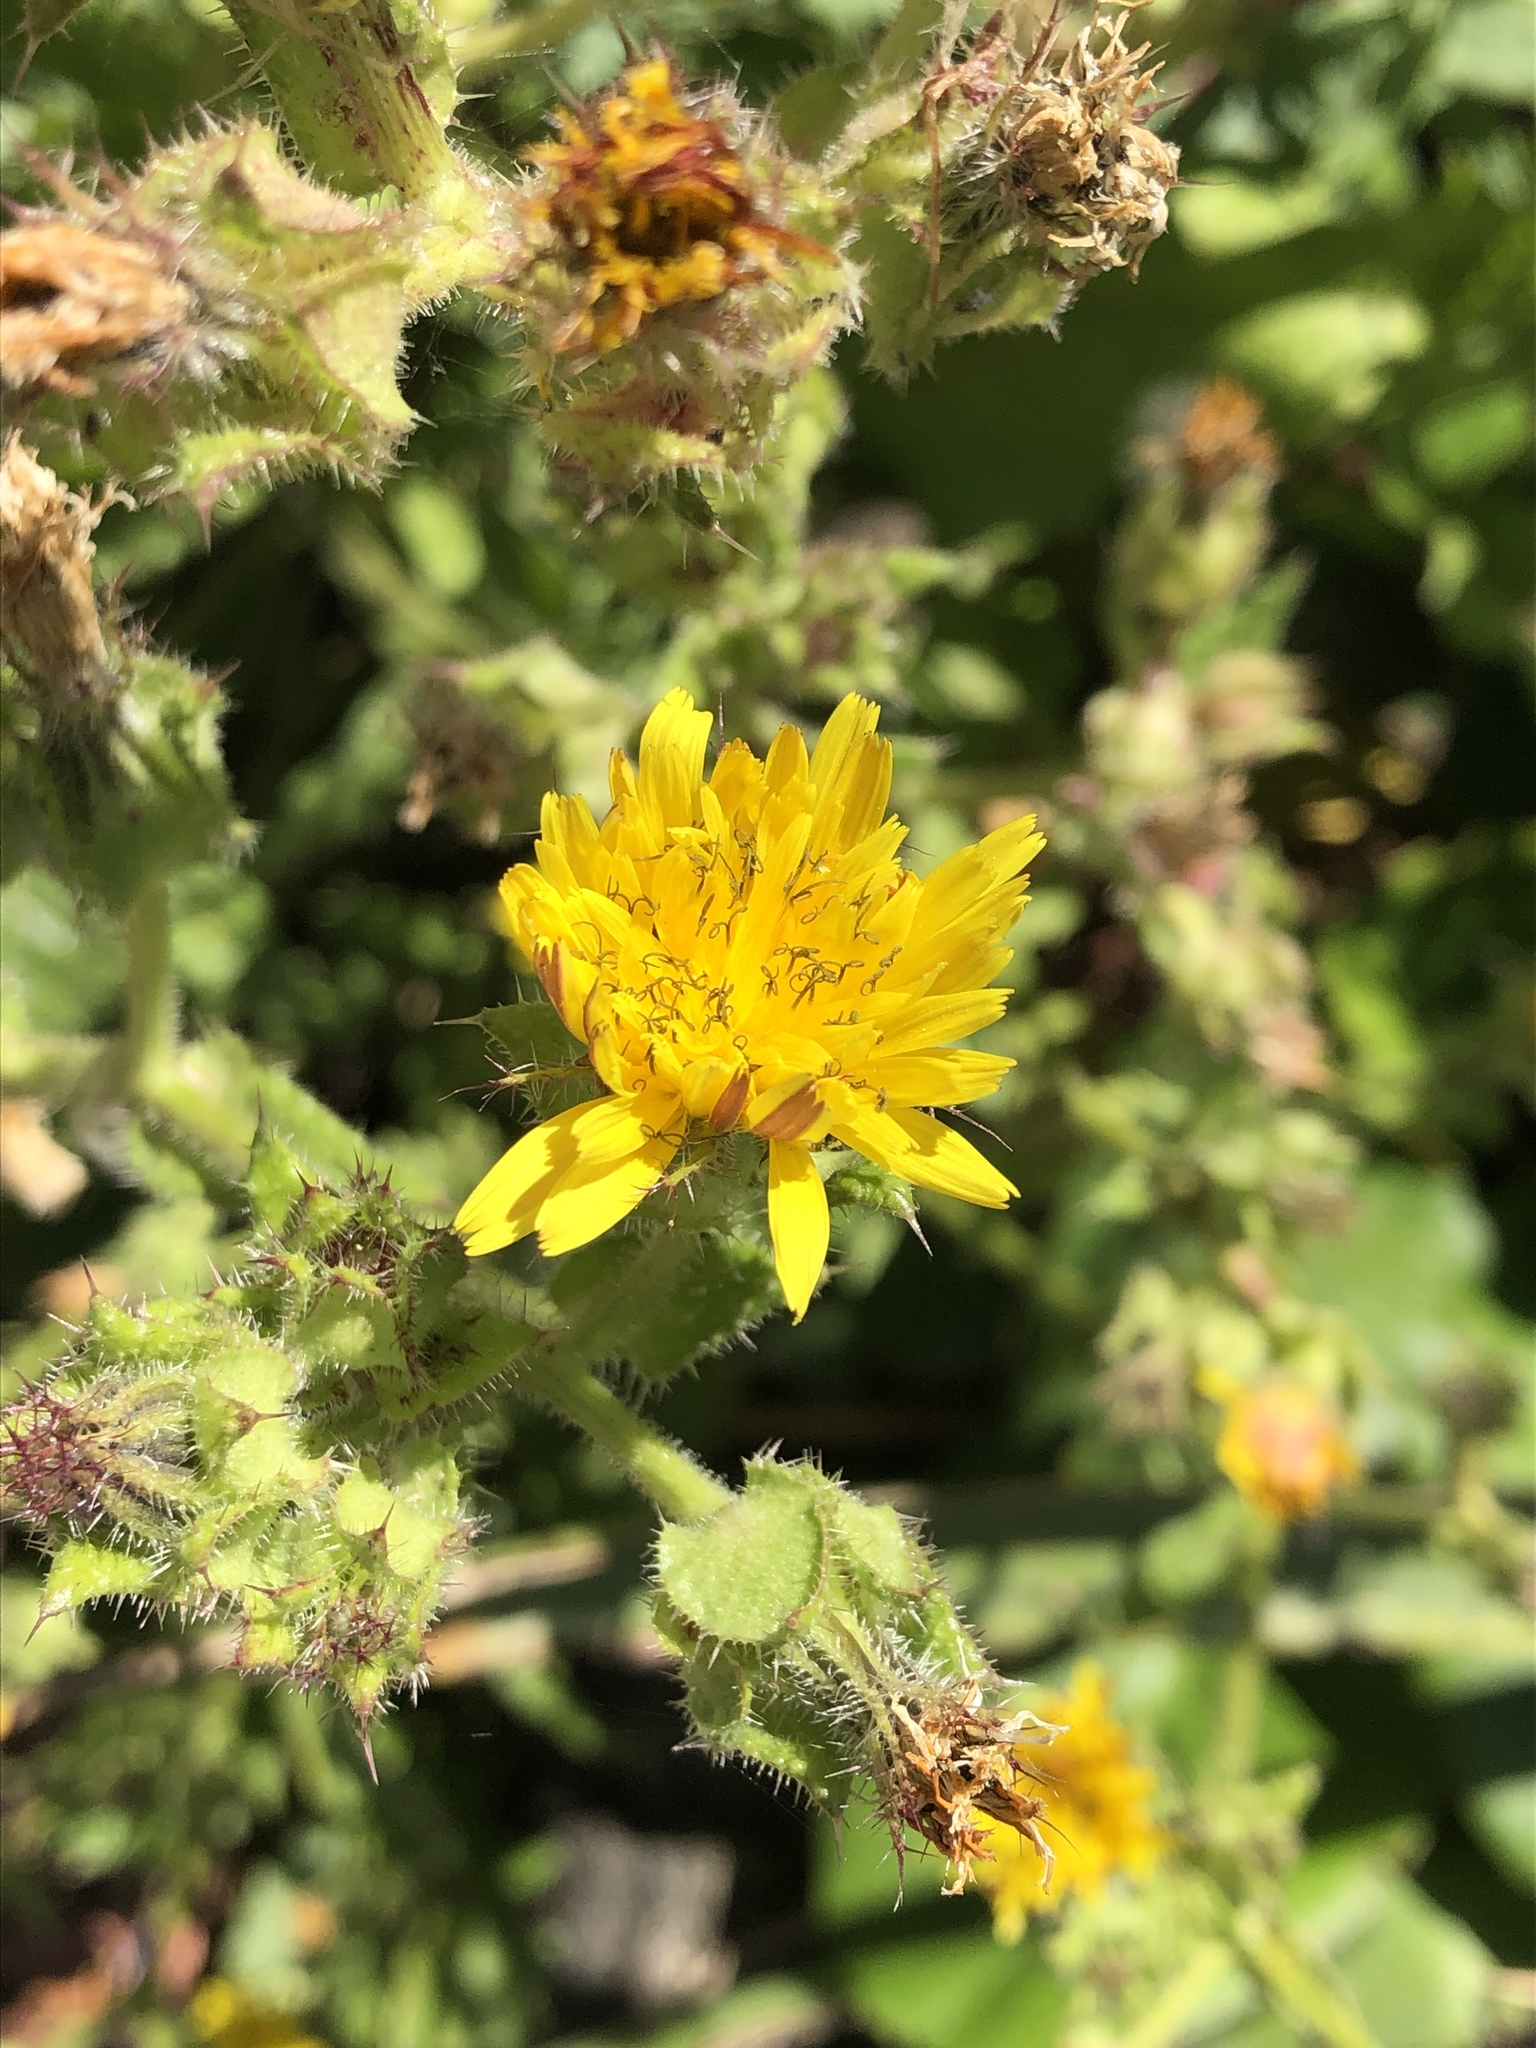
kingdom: Plantae
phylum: Tracheophyta
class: Magnoliopsida
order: Asterales
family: Asteraceae
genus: Helminthotheca
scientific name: Helminthotheca echioides
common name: Ox-tongue
